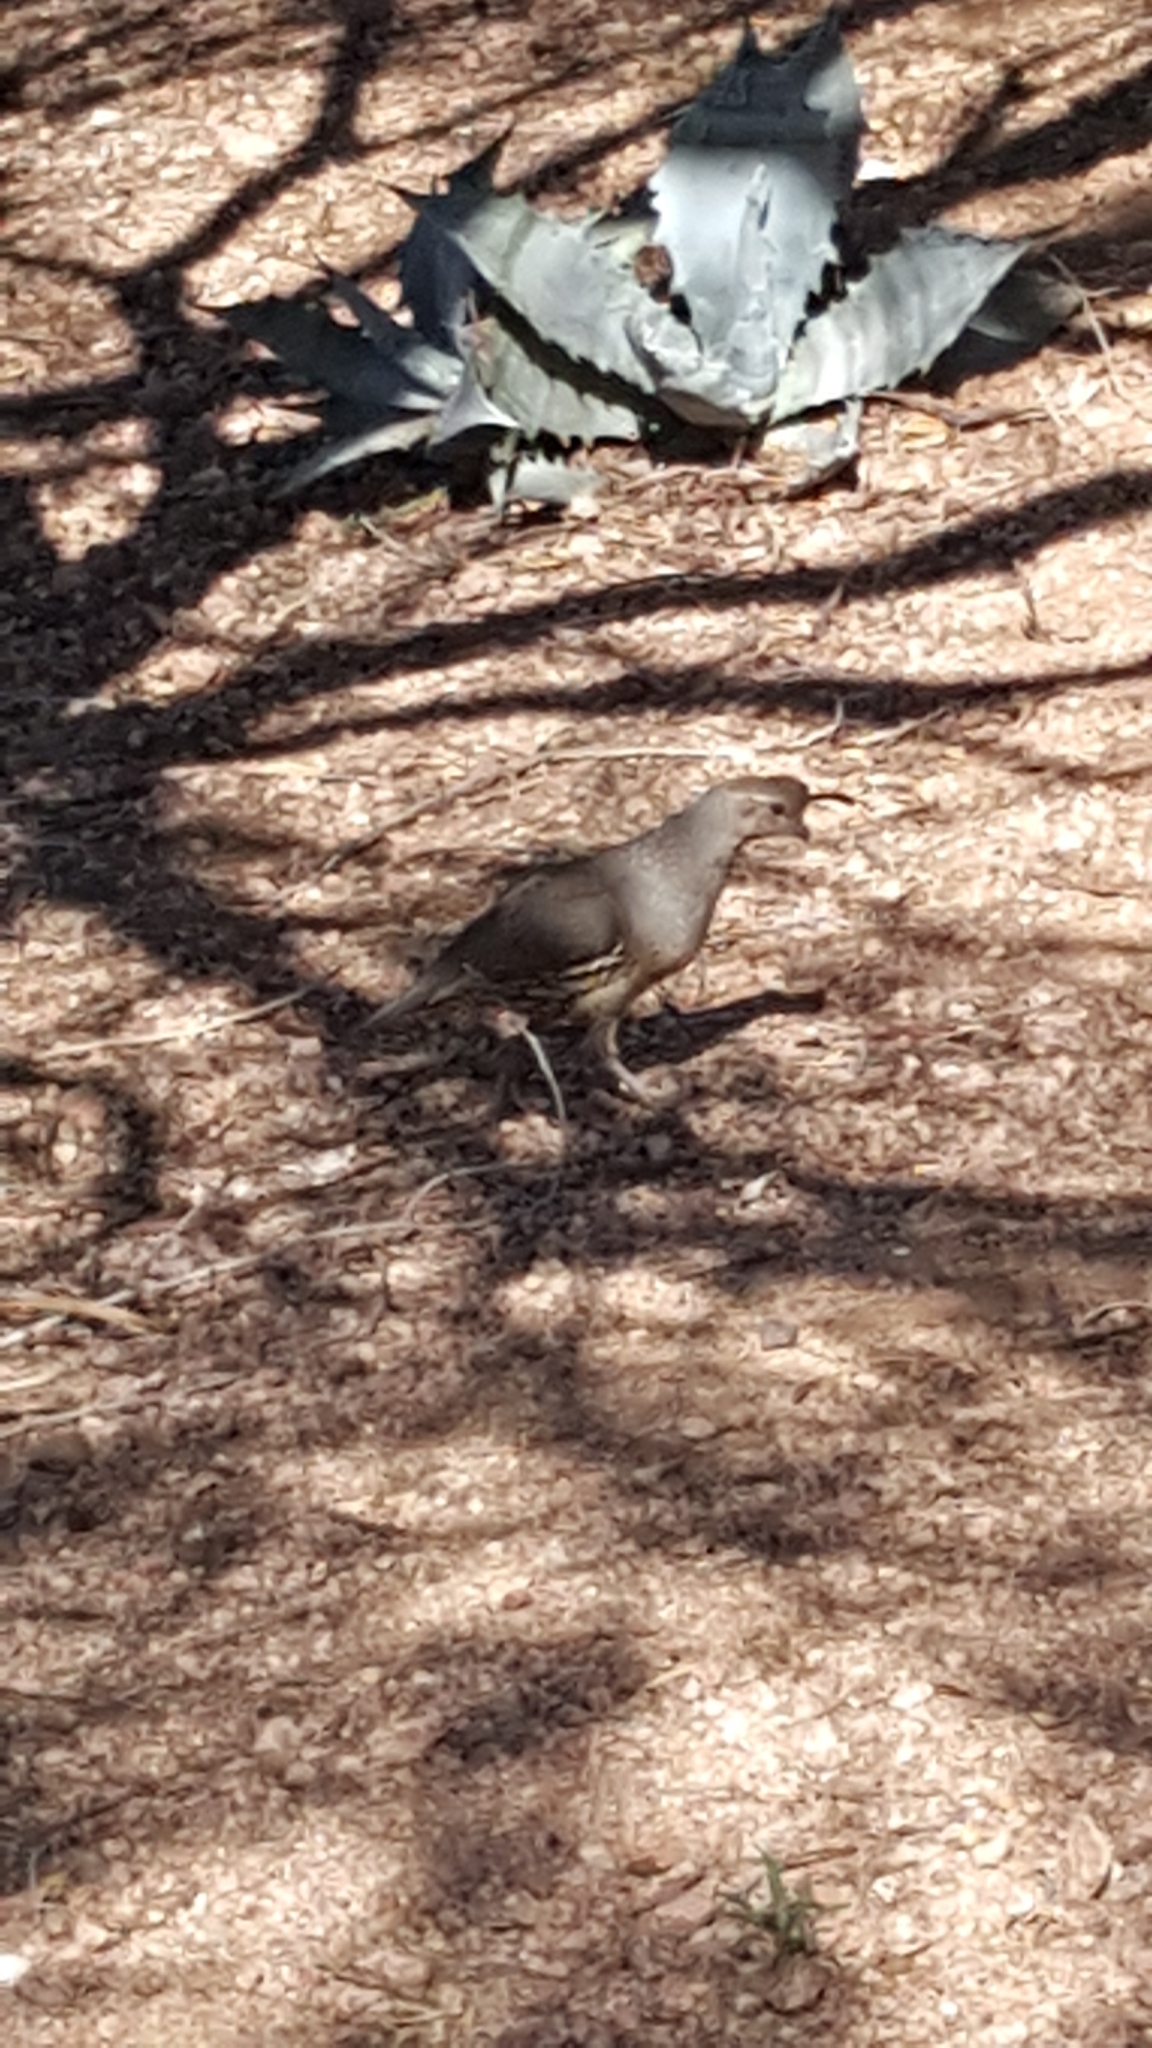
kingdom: Animalia
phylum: Chordata
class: Aves
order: Galliformes
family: Odontophoridae
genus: Callipepla
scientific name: Callipepla gambelii
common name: Gambel's quail
